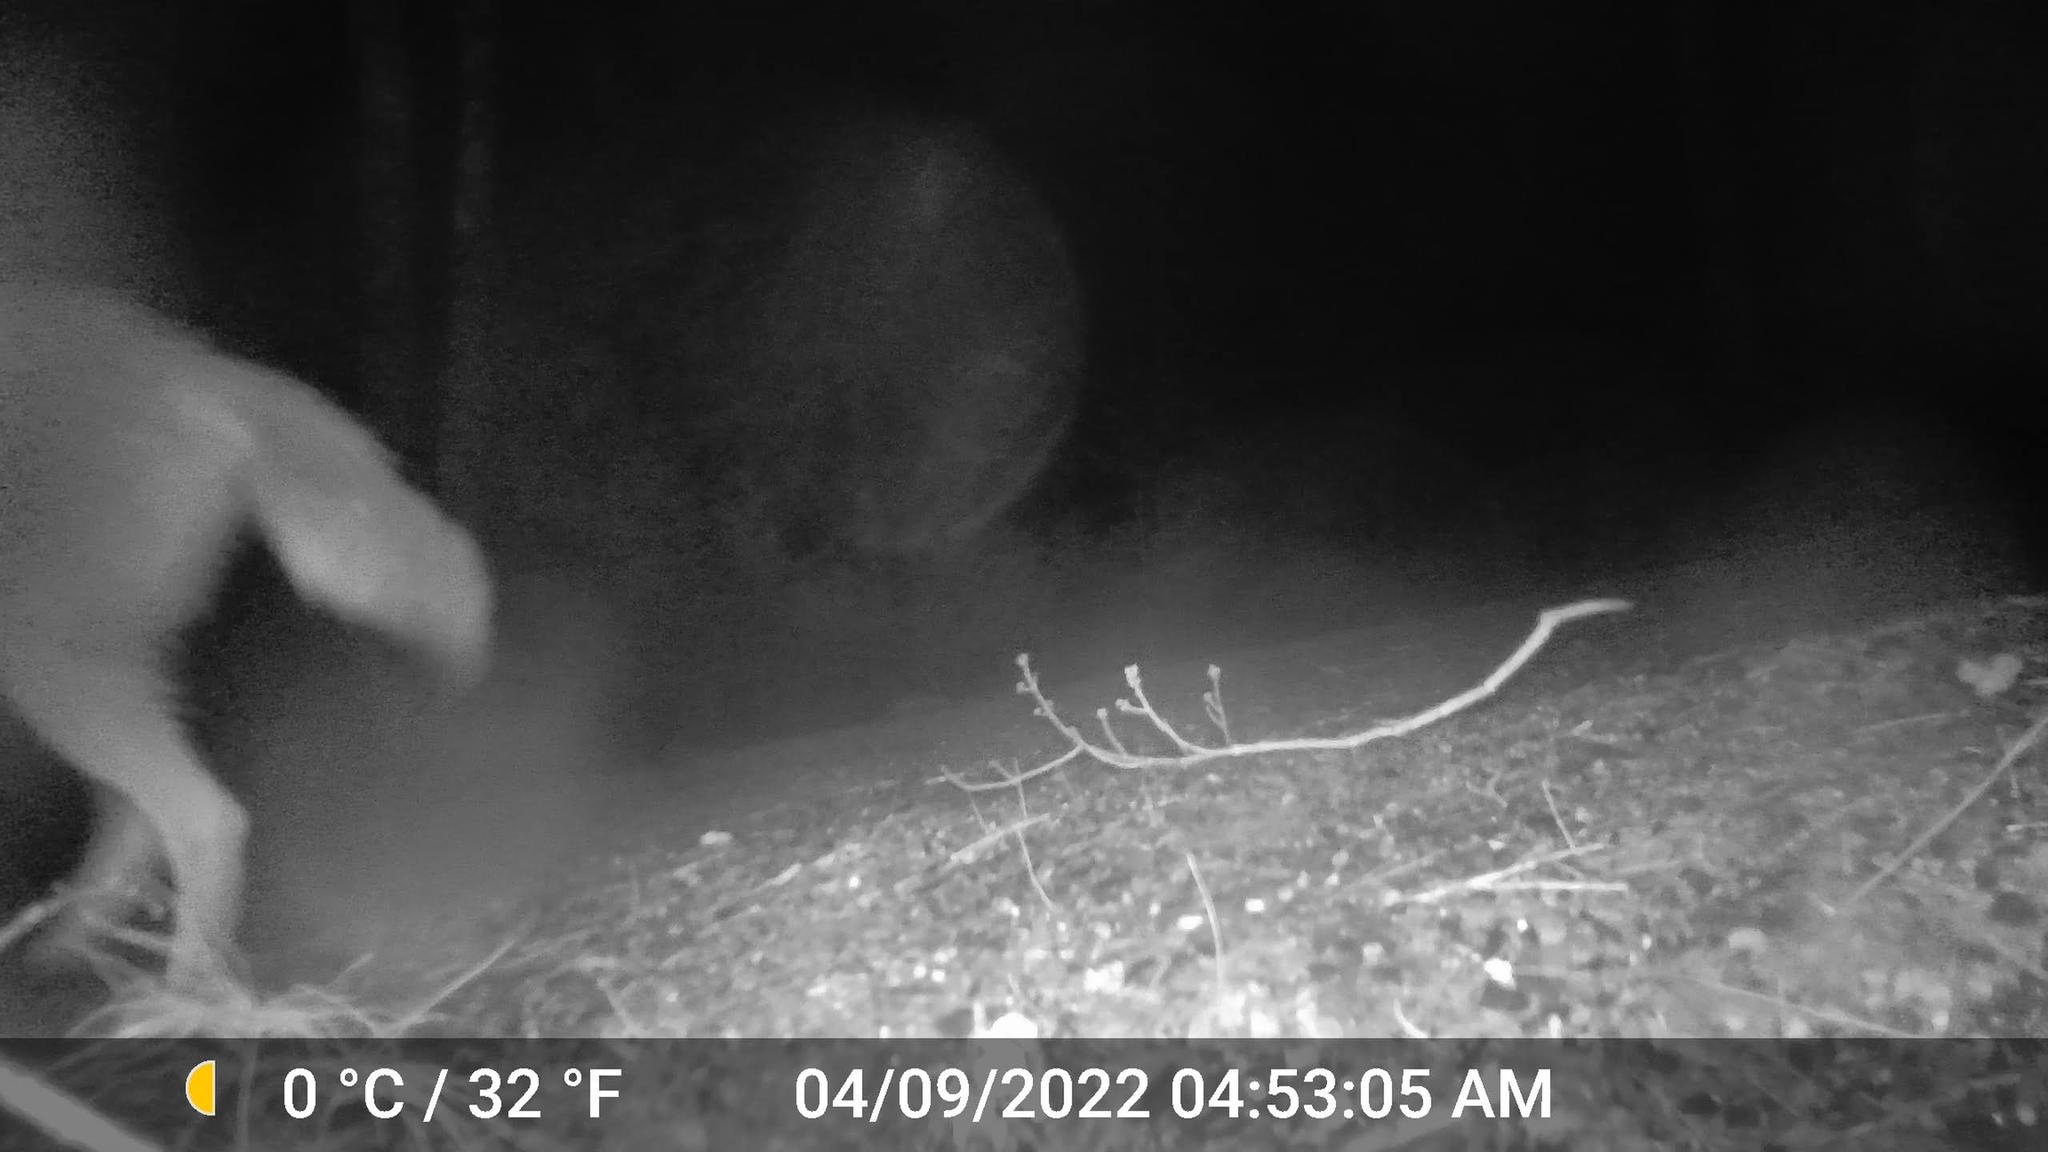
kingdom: Animalia
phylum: Chordata
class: Mammalia
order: Carnivora
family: Canidae
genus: Canis
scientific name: Canis latrans
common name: Coyote
